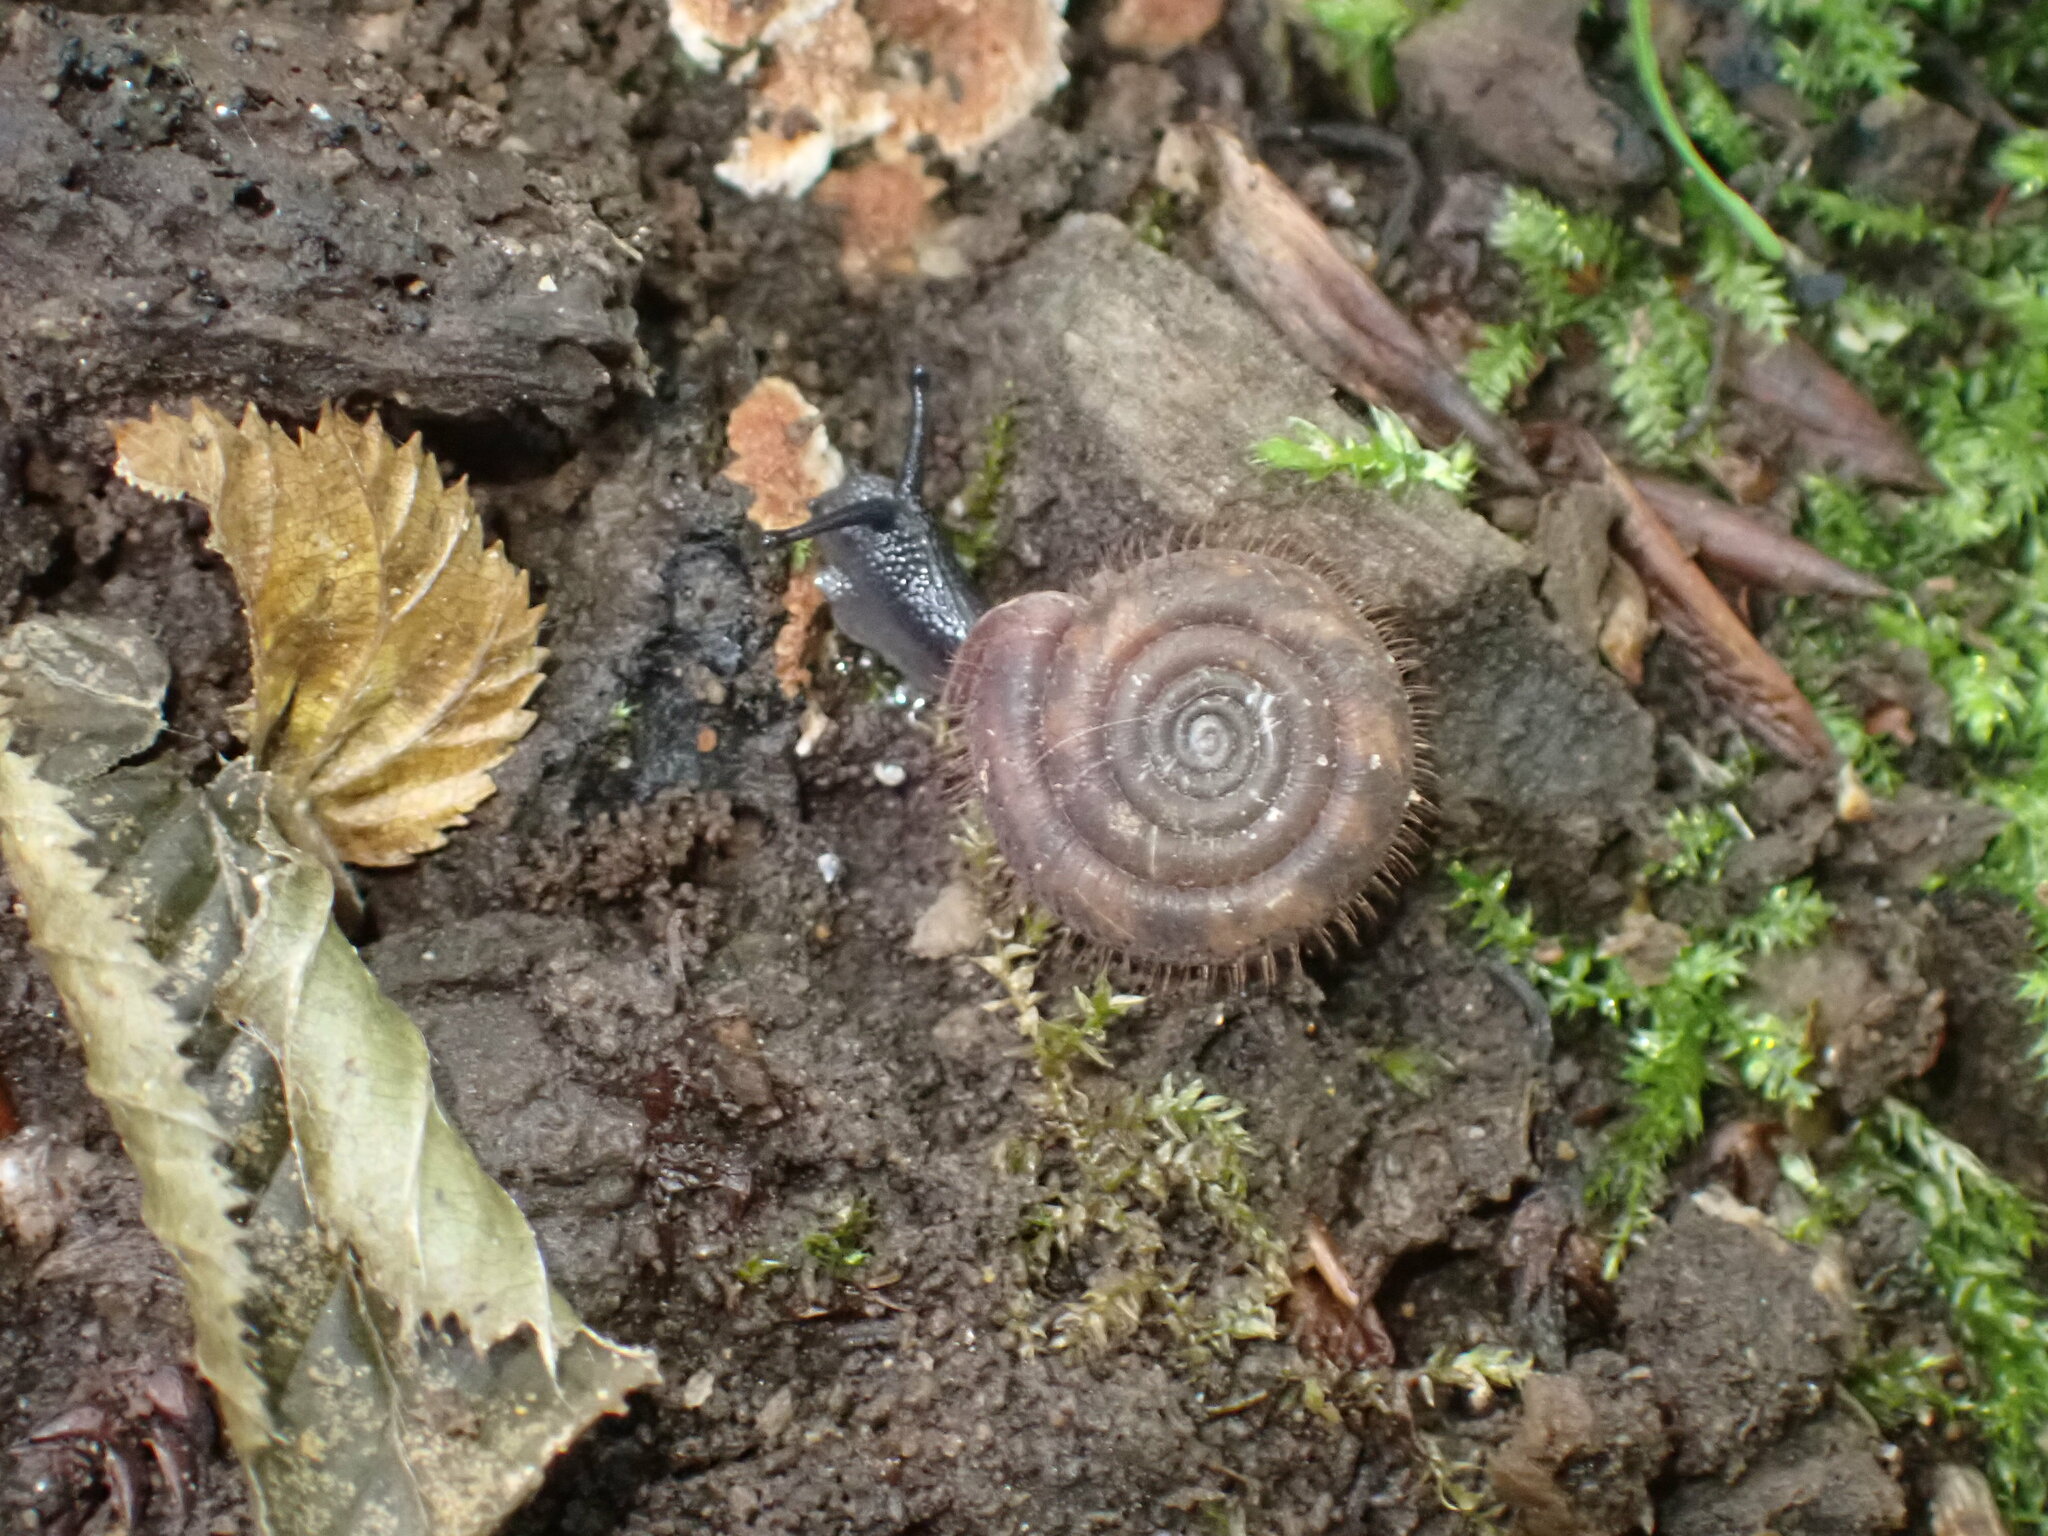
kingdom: Animalia
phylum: Mollusca
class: Gastropoda
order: Stylommatophora
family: Helicodontidae
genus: Helicodonta
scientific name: Helicodonta obvoluta
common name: Cheese snail
